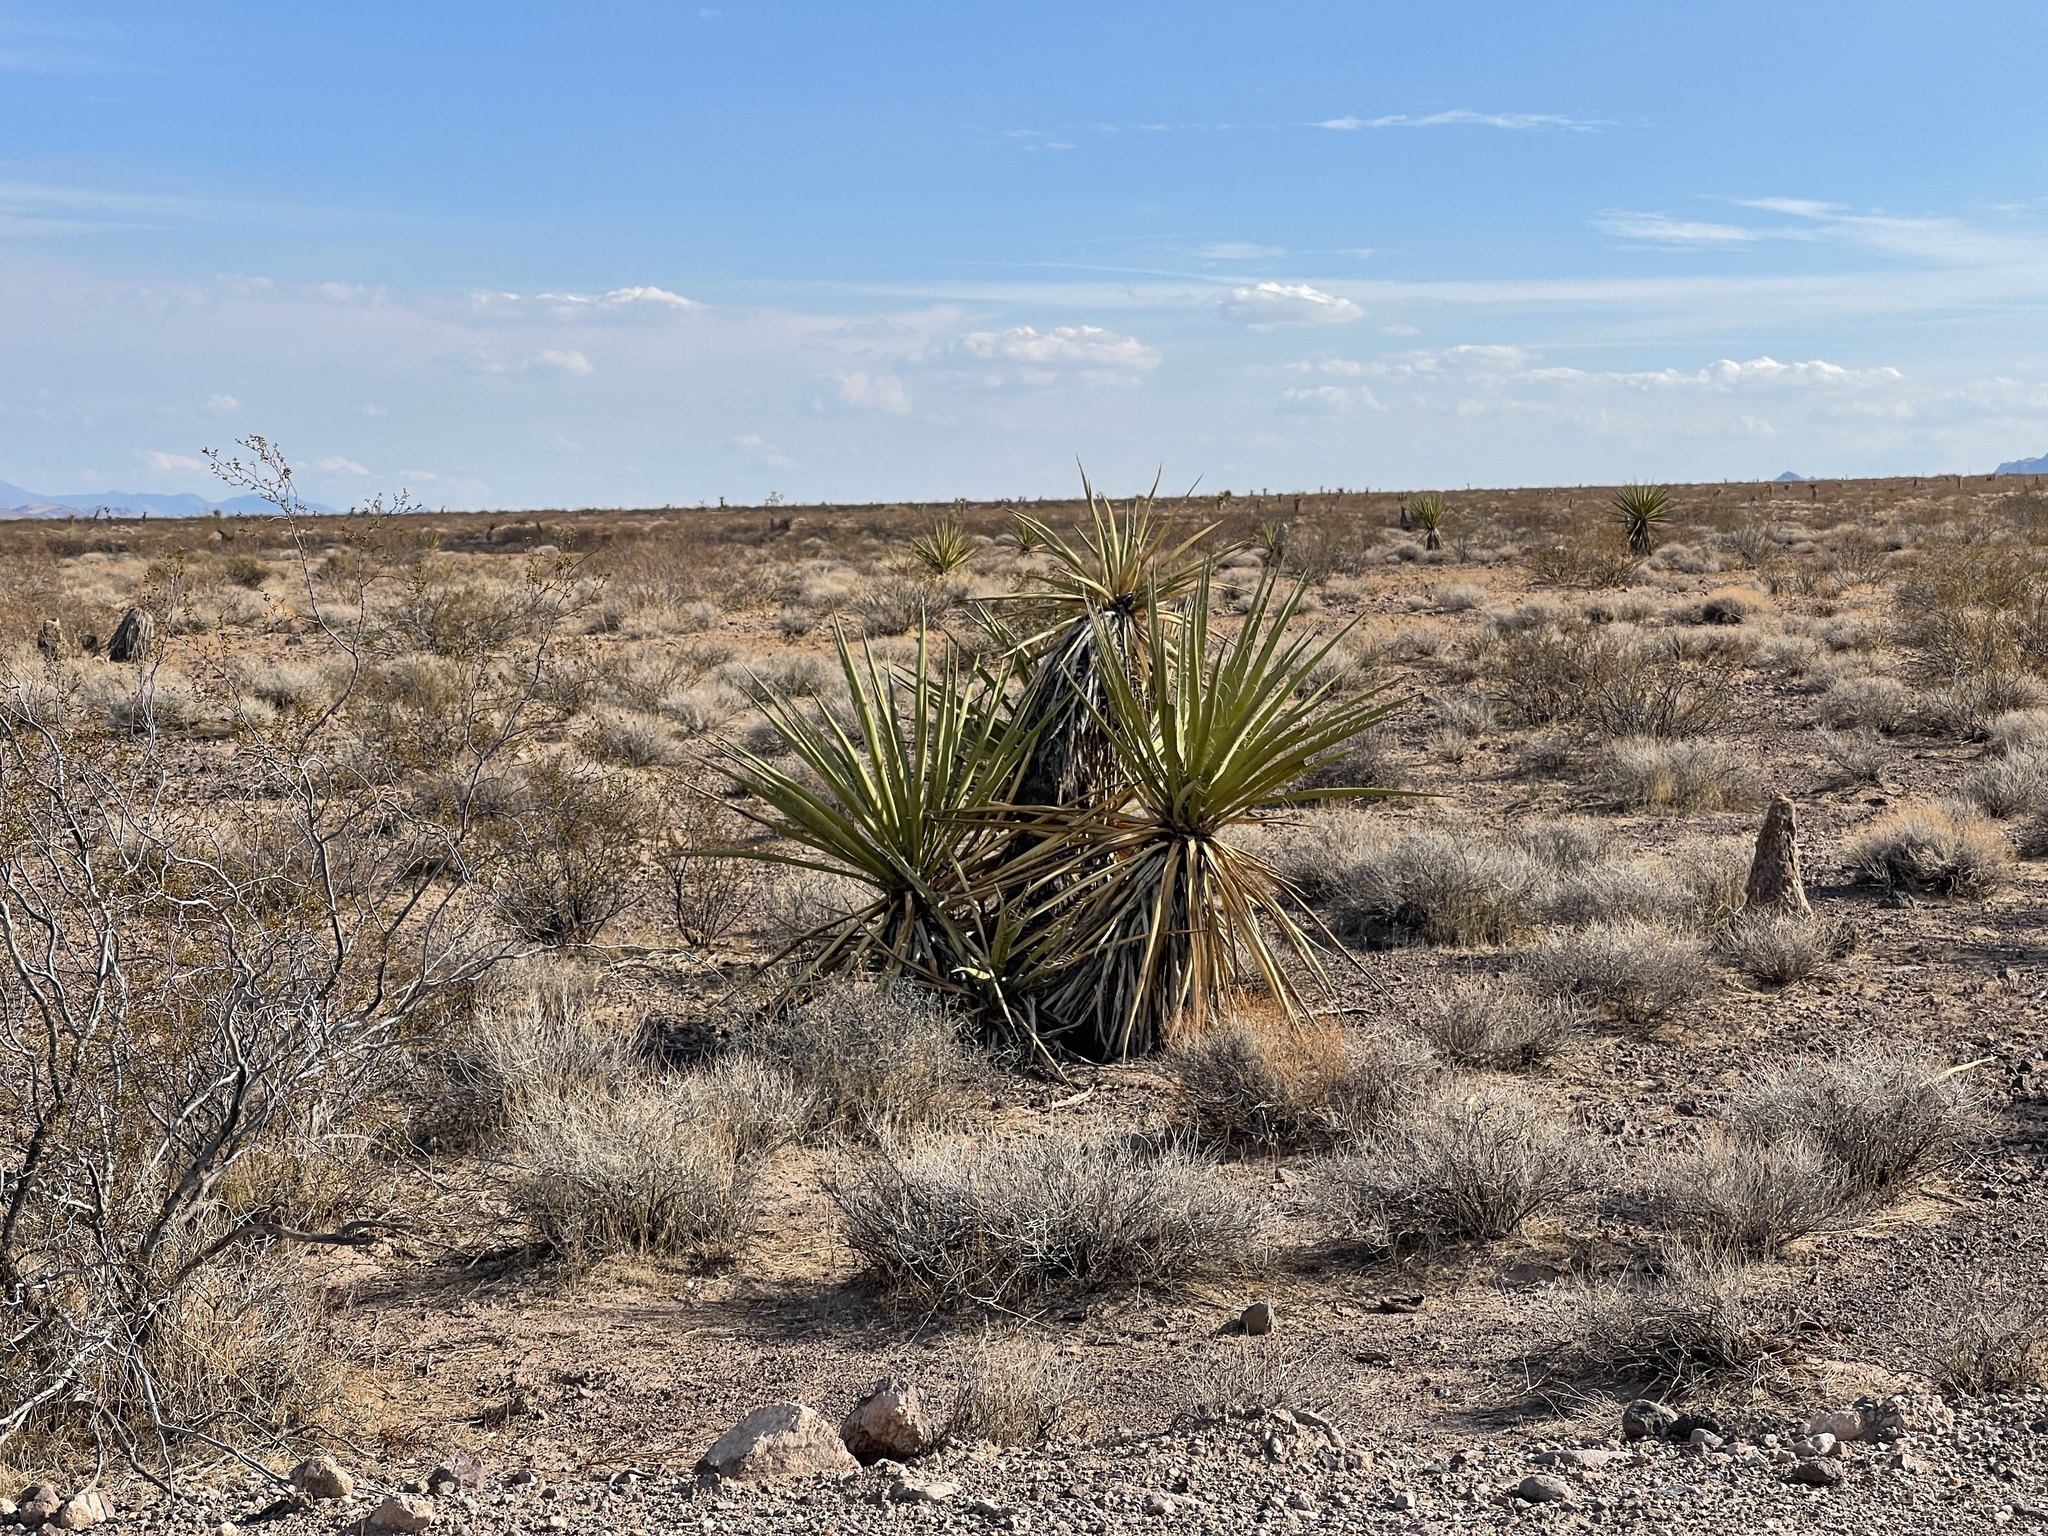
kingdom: Plantae
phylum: Tracheophyta
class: Liliopsida
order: Asparagales
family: Asparagaceae
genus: Yucca
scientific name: Yucca schidigera
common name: Mojave yucca
